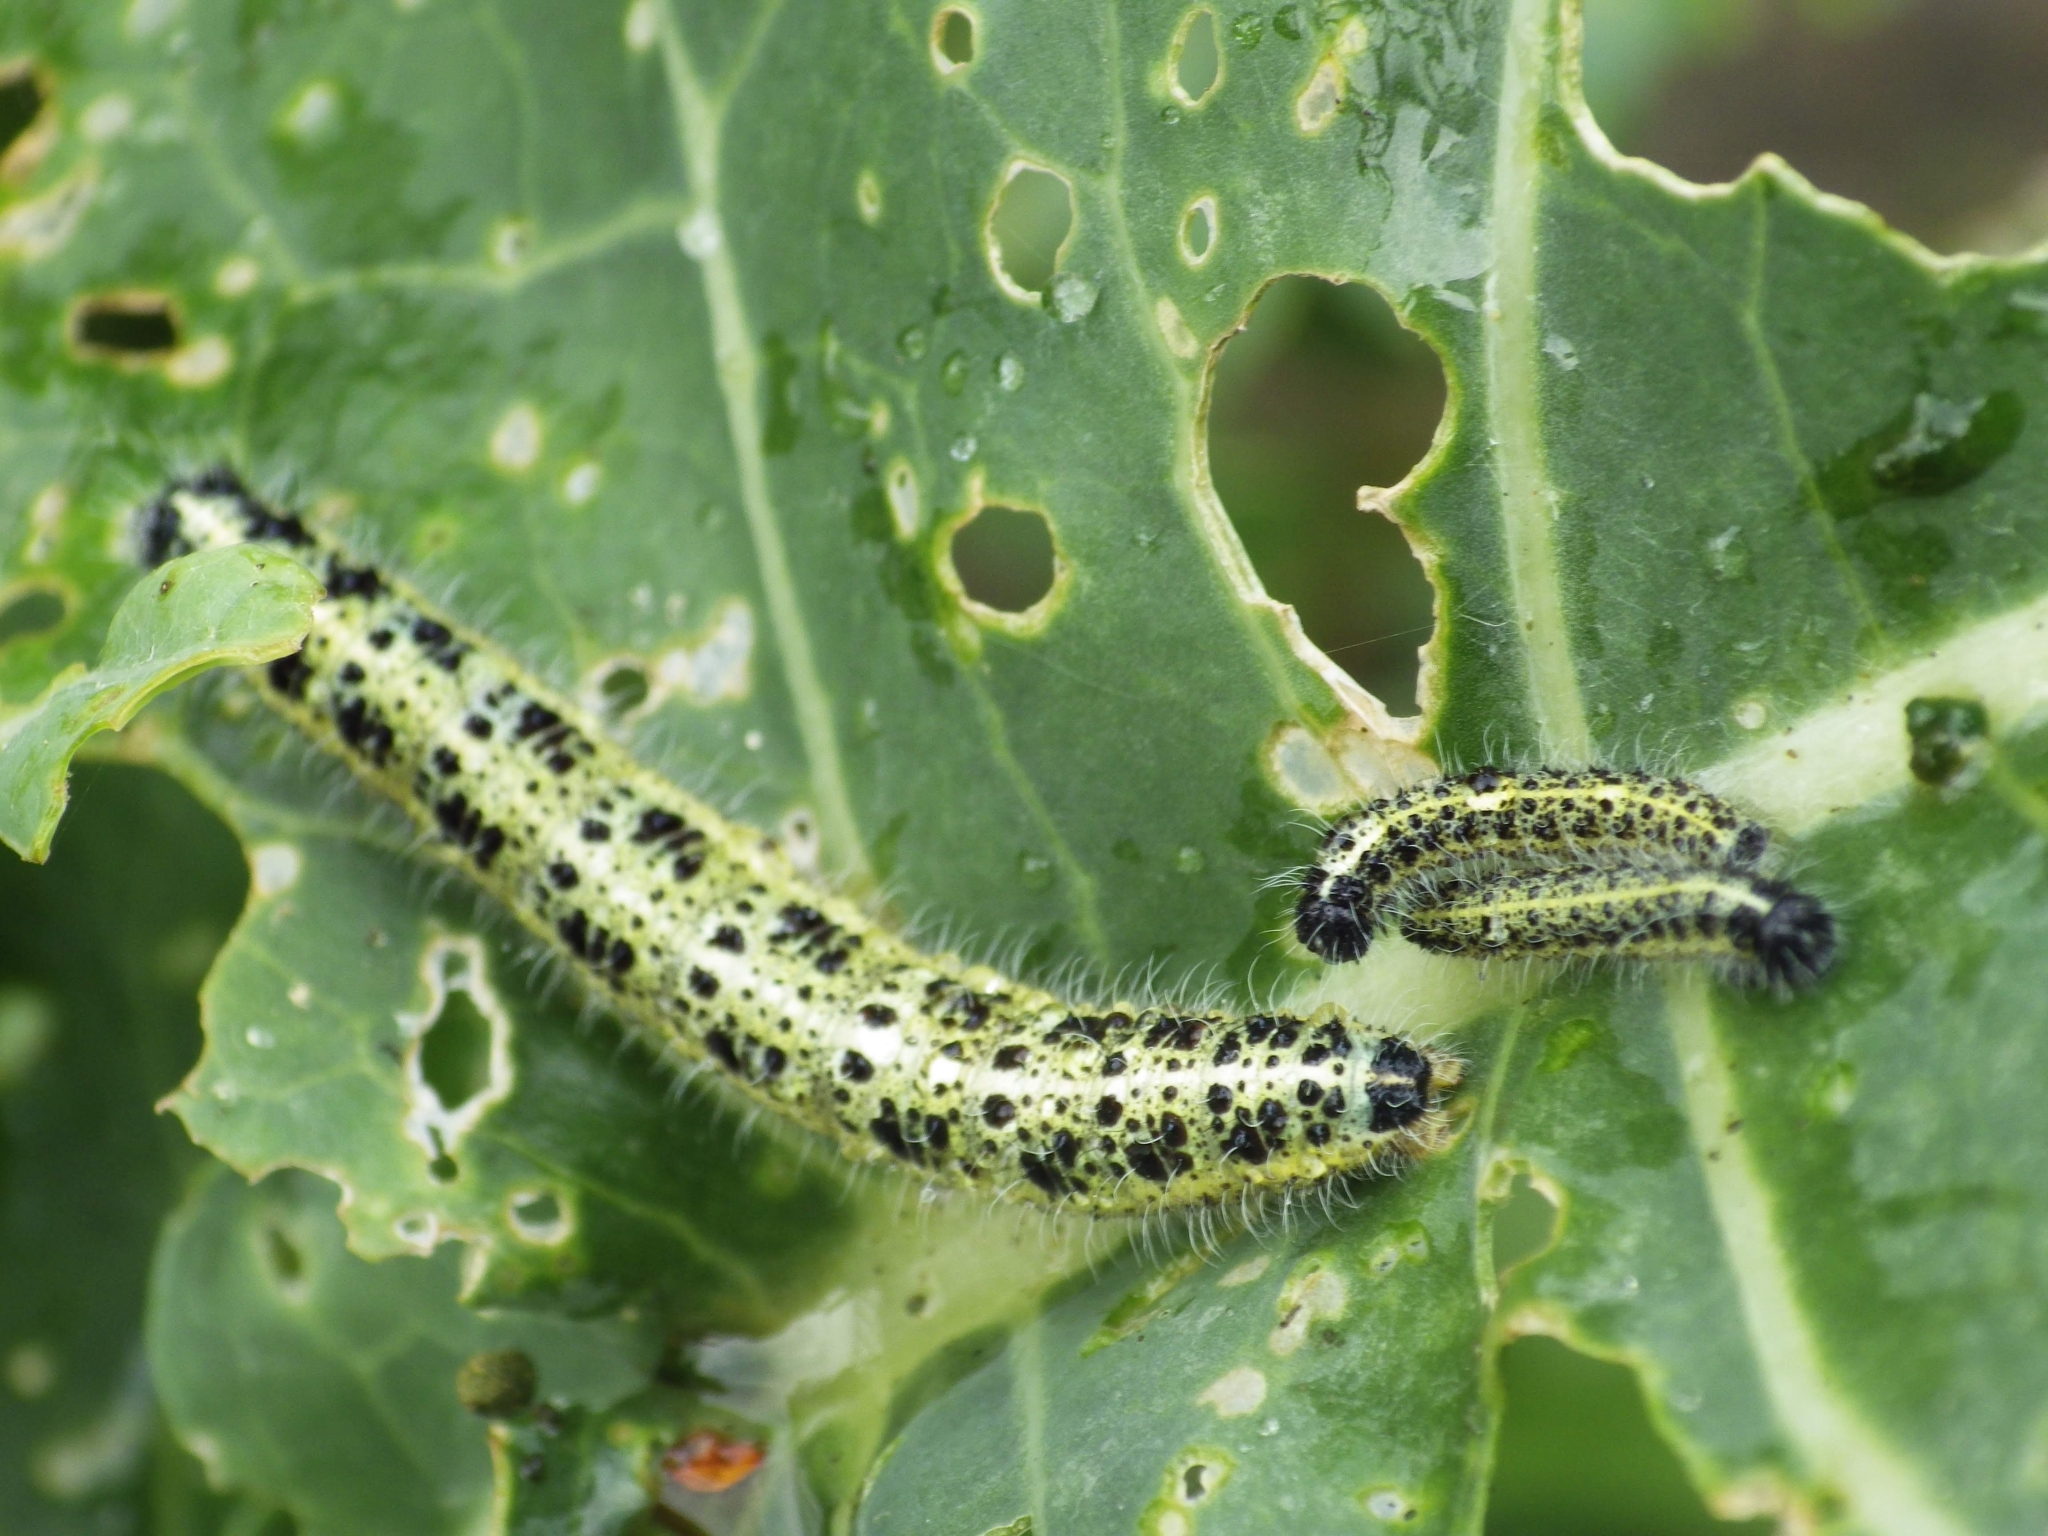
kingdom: Animalia
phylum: Arthropoda
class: Insecta
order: Lepidoptera
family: Pieridae
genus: Pieris
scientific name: Pieris brassicae
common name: Large white
